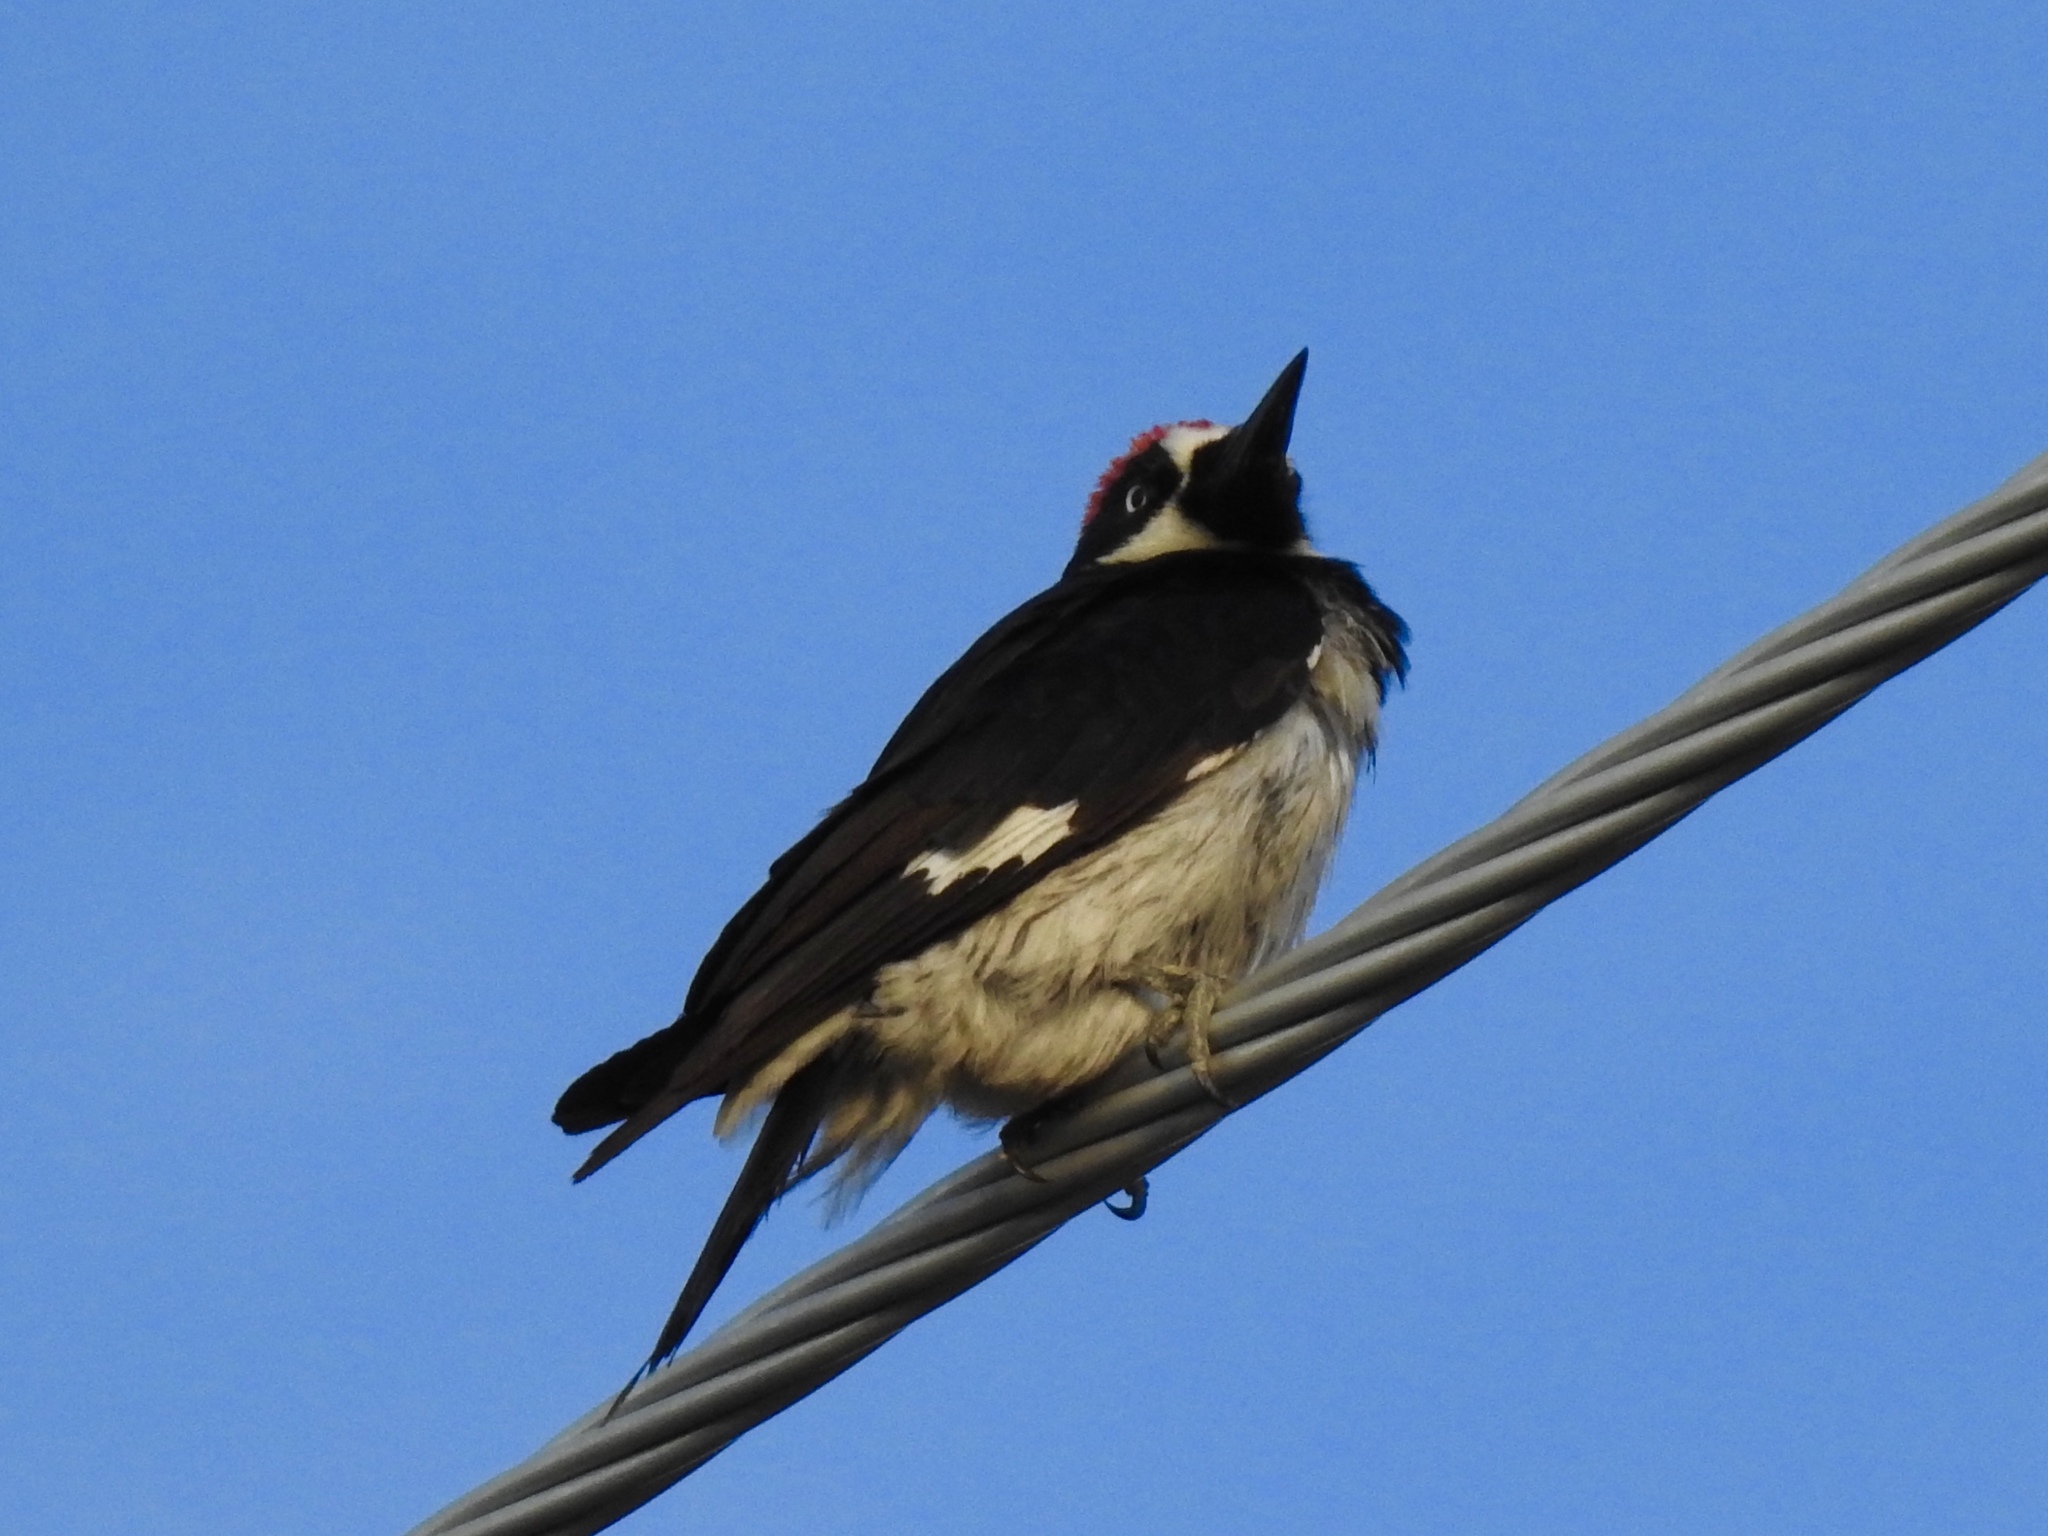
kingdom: Animalia
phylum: Chordata
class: Aves
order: Piciformes
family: Picidae
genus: Melanerpes
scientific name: Melanerpes formicivorus
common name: Acorn woodpecker
